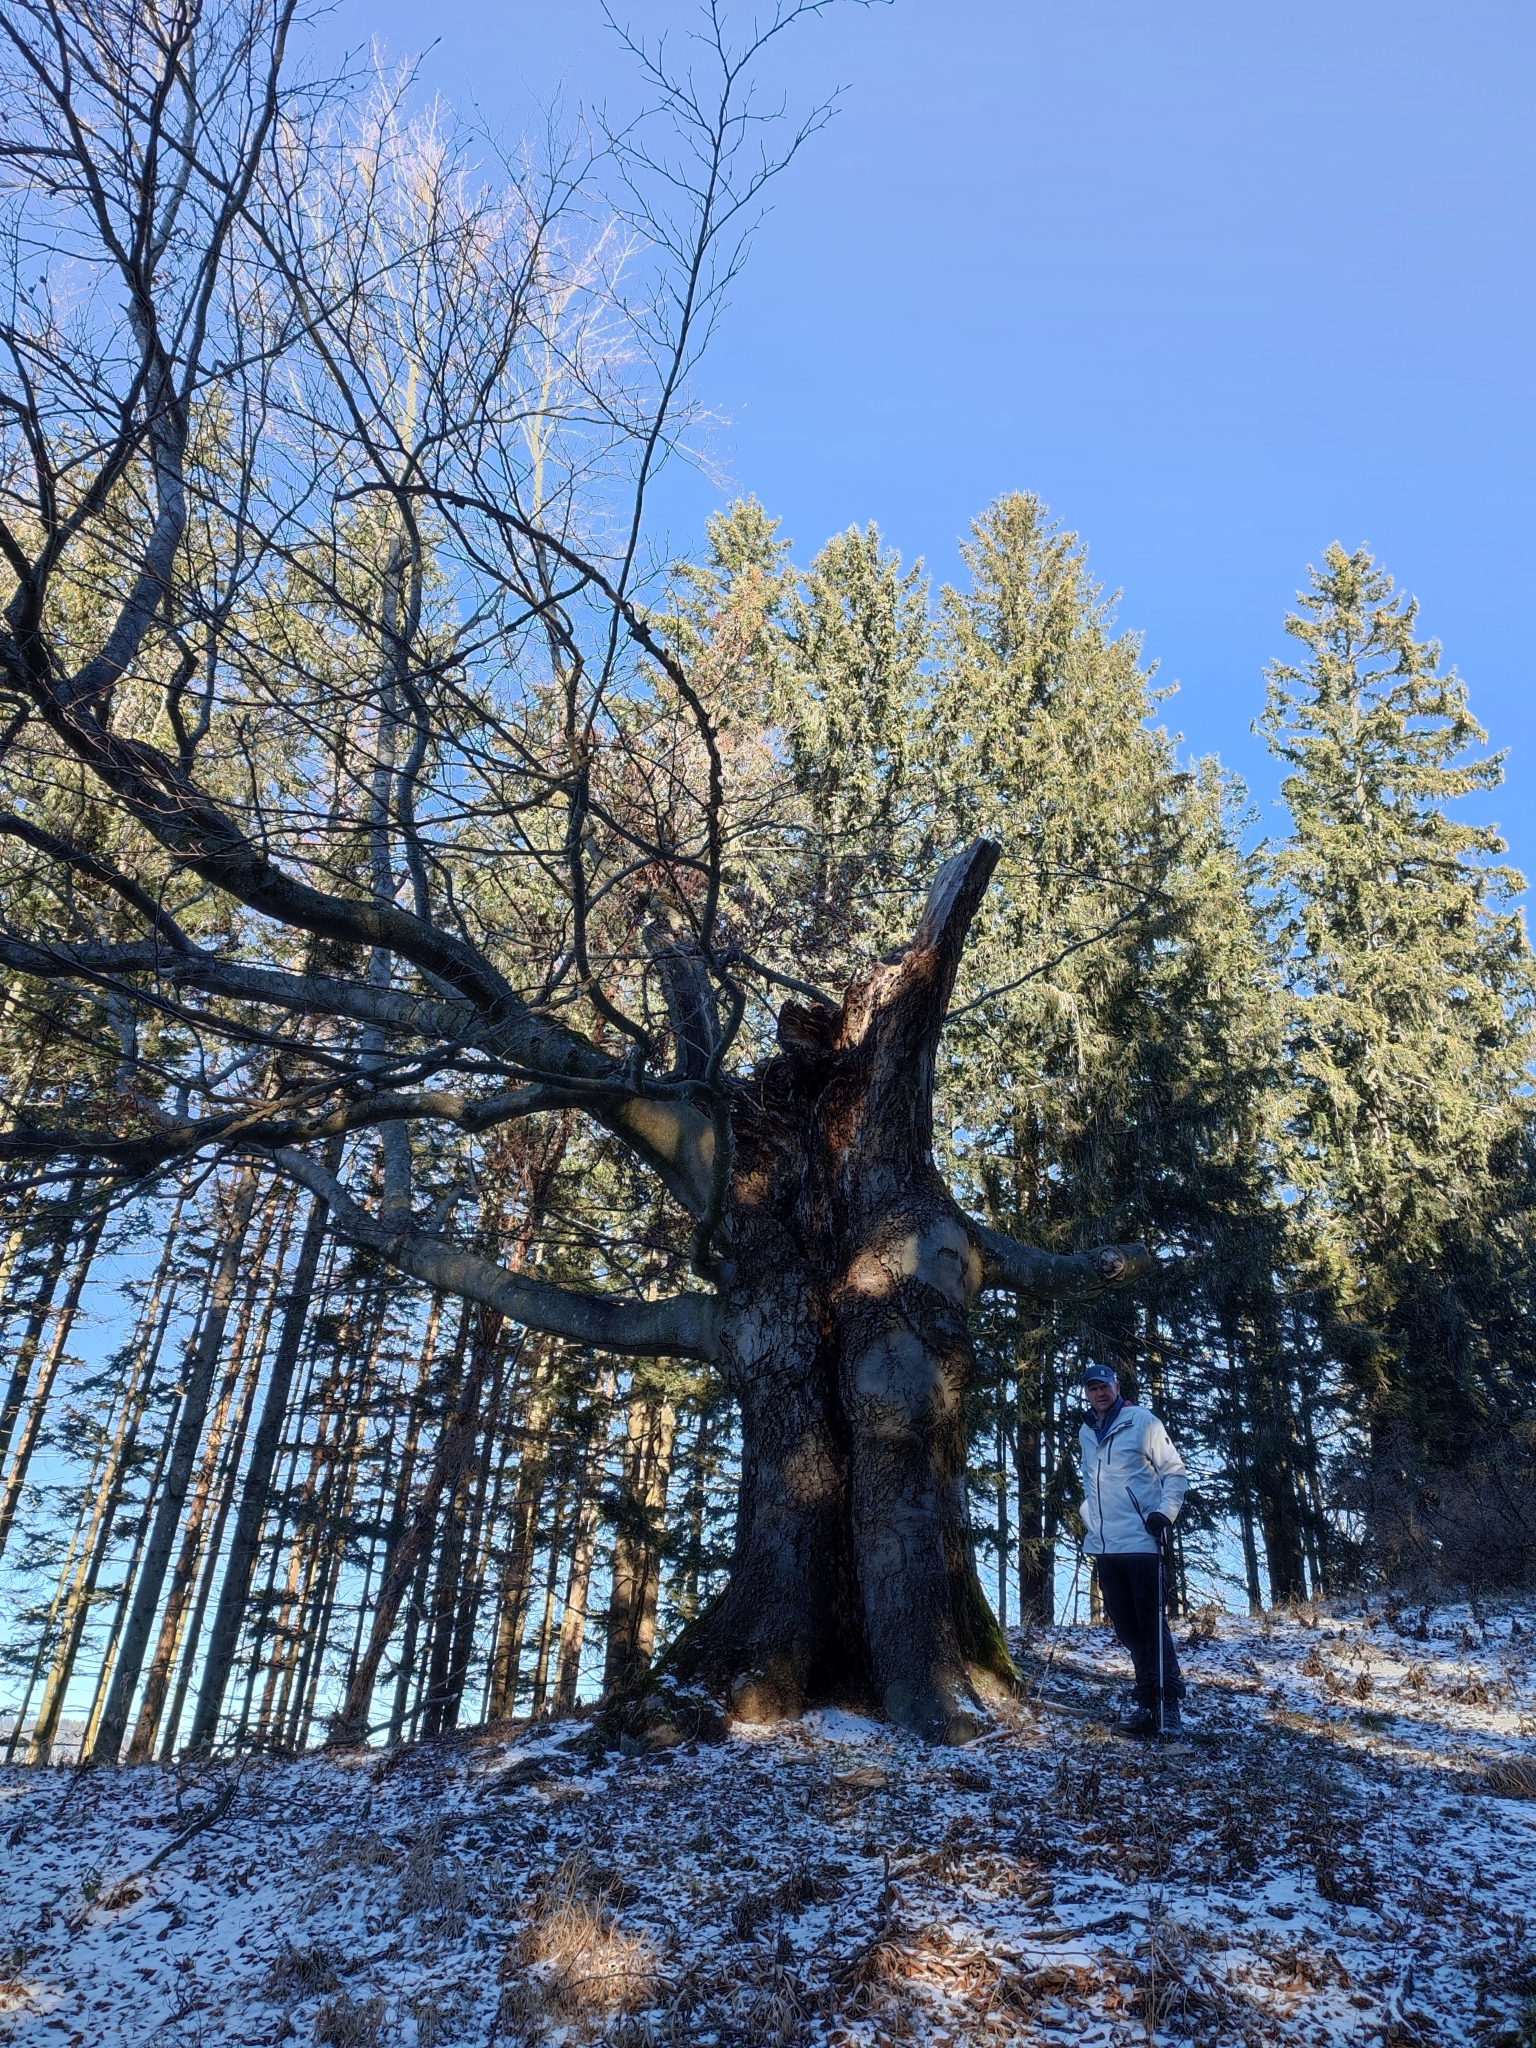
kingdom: Plantae
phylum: Tracheophyta
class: Magnoliopsida
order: Fagales
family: Fagaceae
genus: Fagus
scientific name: Fagus sylvatica
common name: Beech
